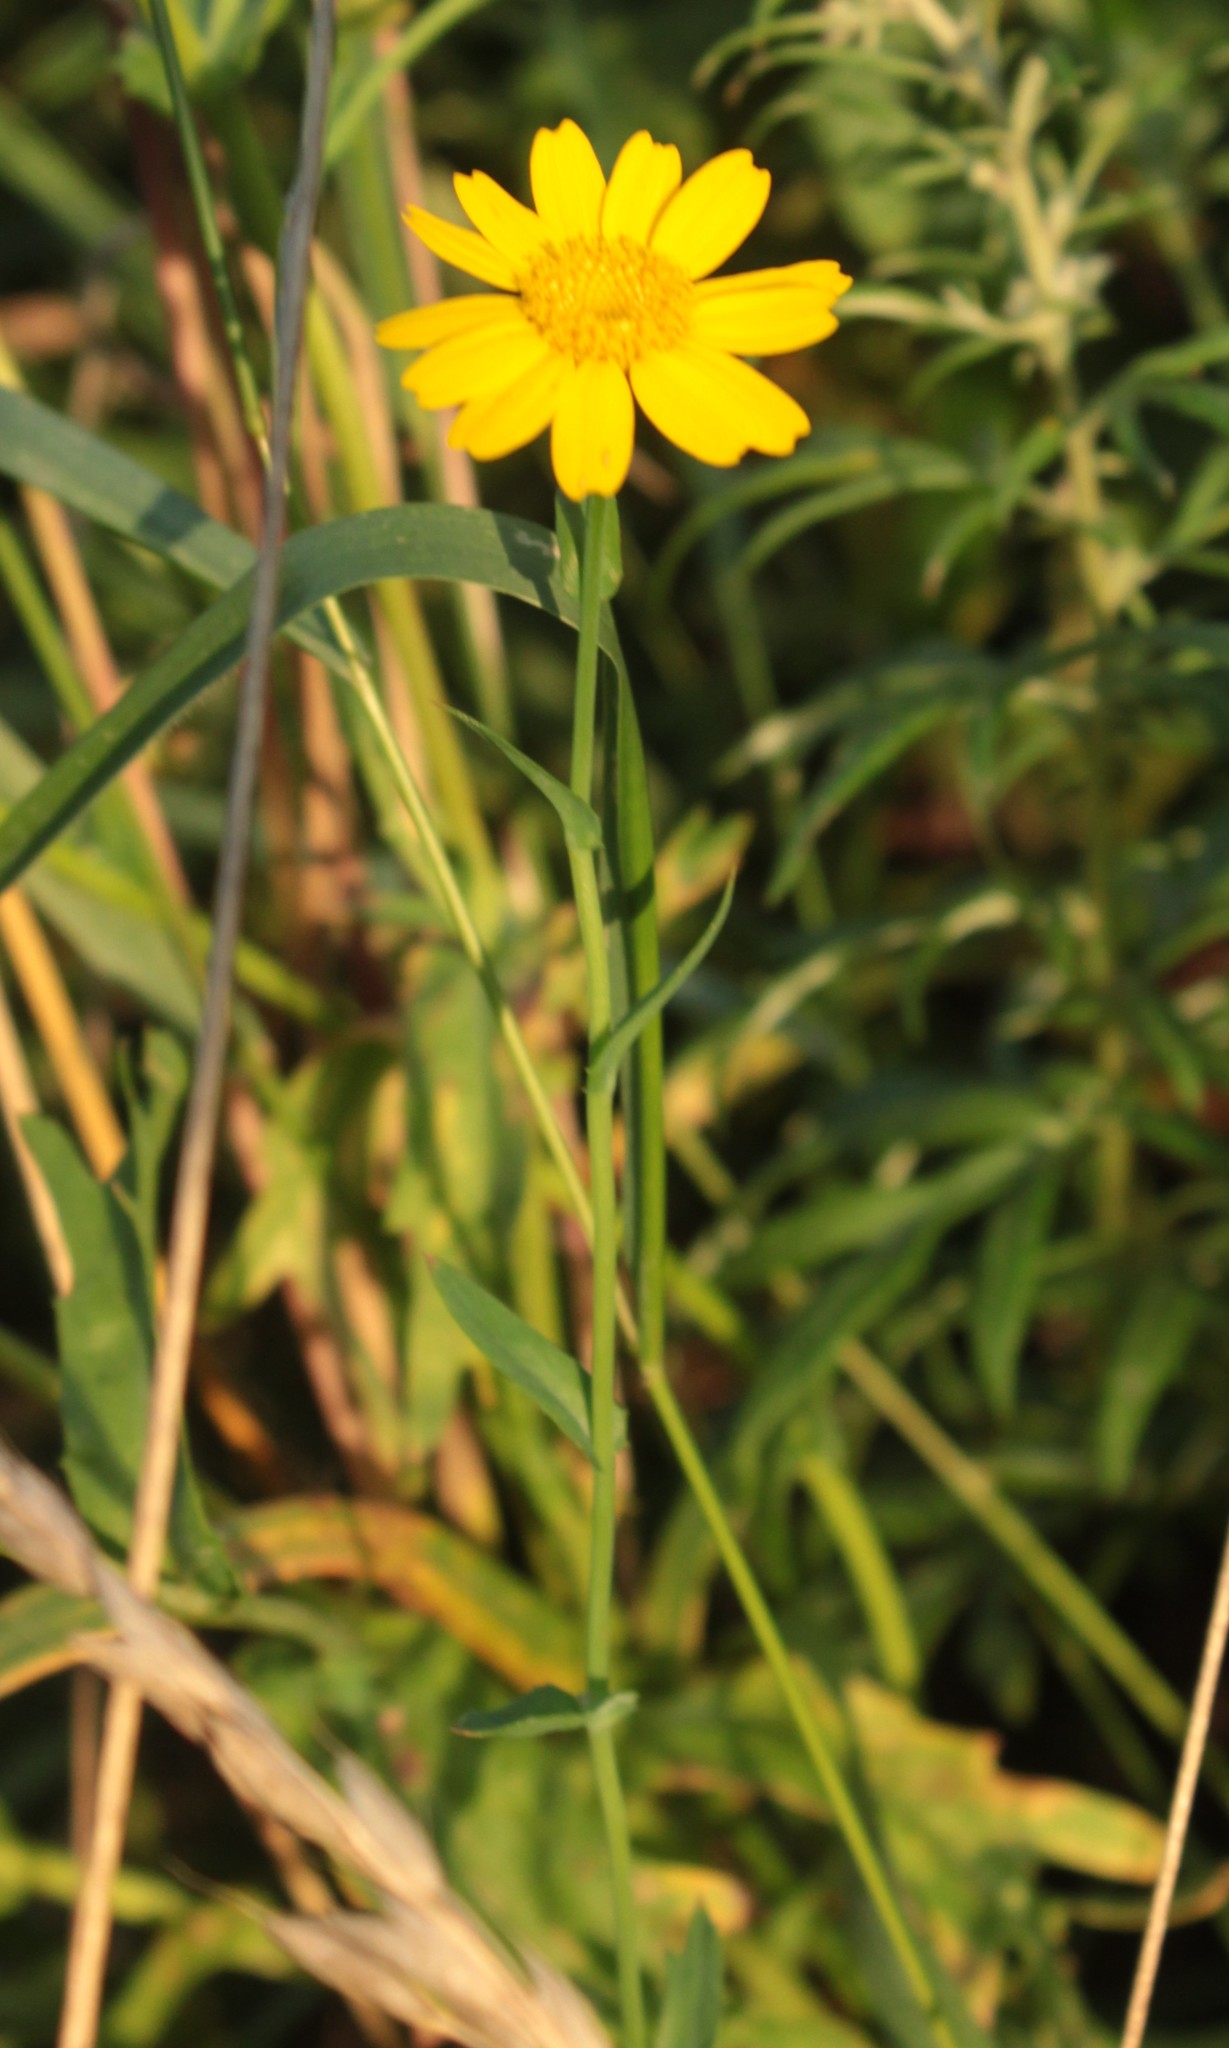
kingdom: Plantae
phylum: Tracheophyta
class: Magnoliopsida
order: Asterales
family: Asteraceae
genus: Glebionis
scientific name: Glebionis segetum
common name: Corndaisy
